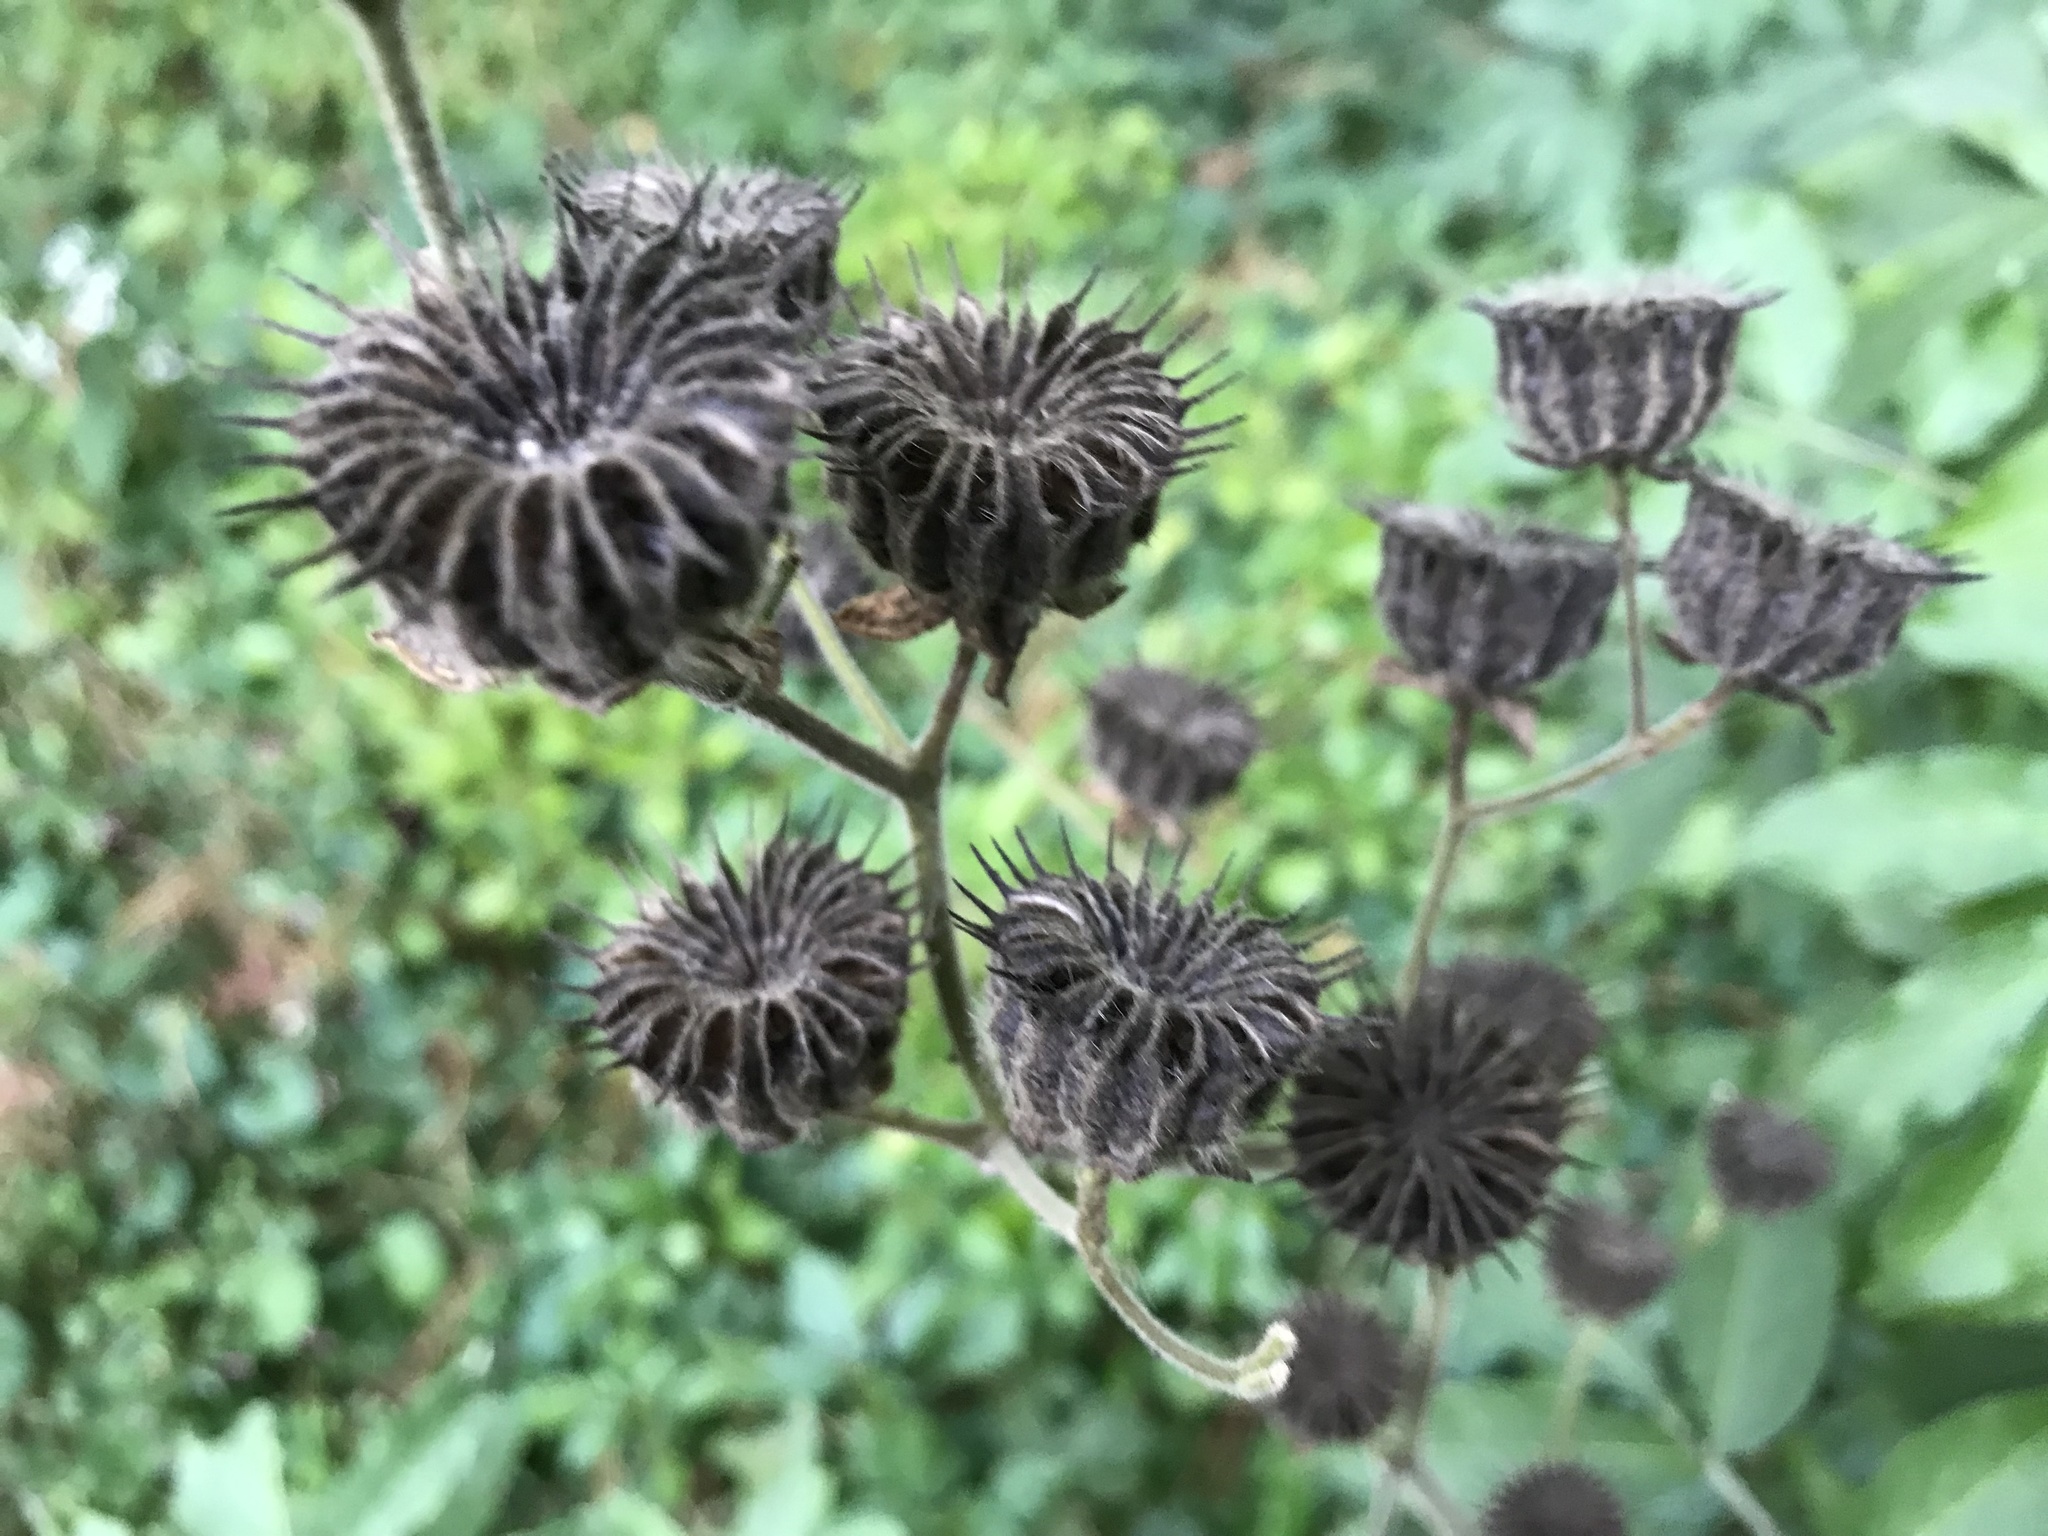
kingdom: Plantae
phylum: Tracheophyta
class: Magnoliopsida
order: Malvales
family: Malvaceae
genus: Abutilon
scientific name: Abutilon theophrasti
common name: Velvetleaf
